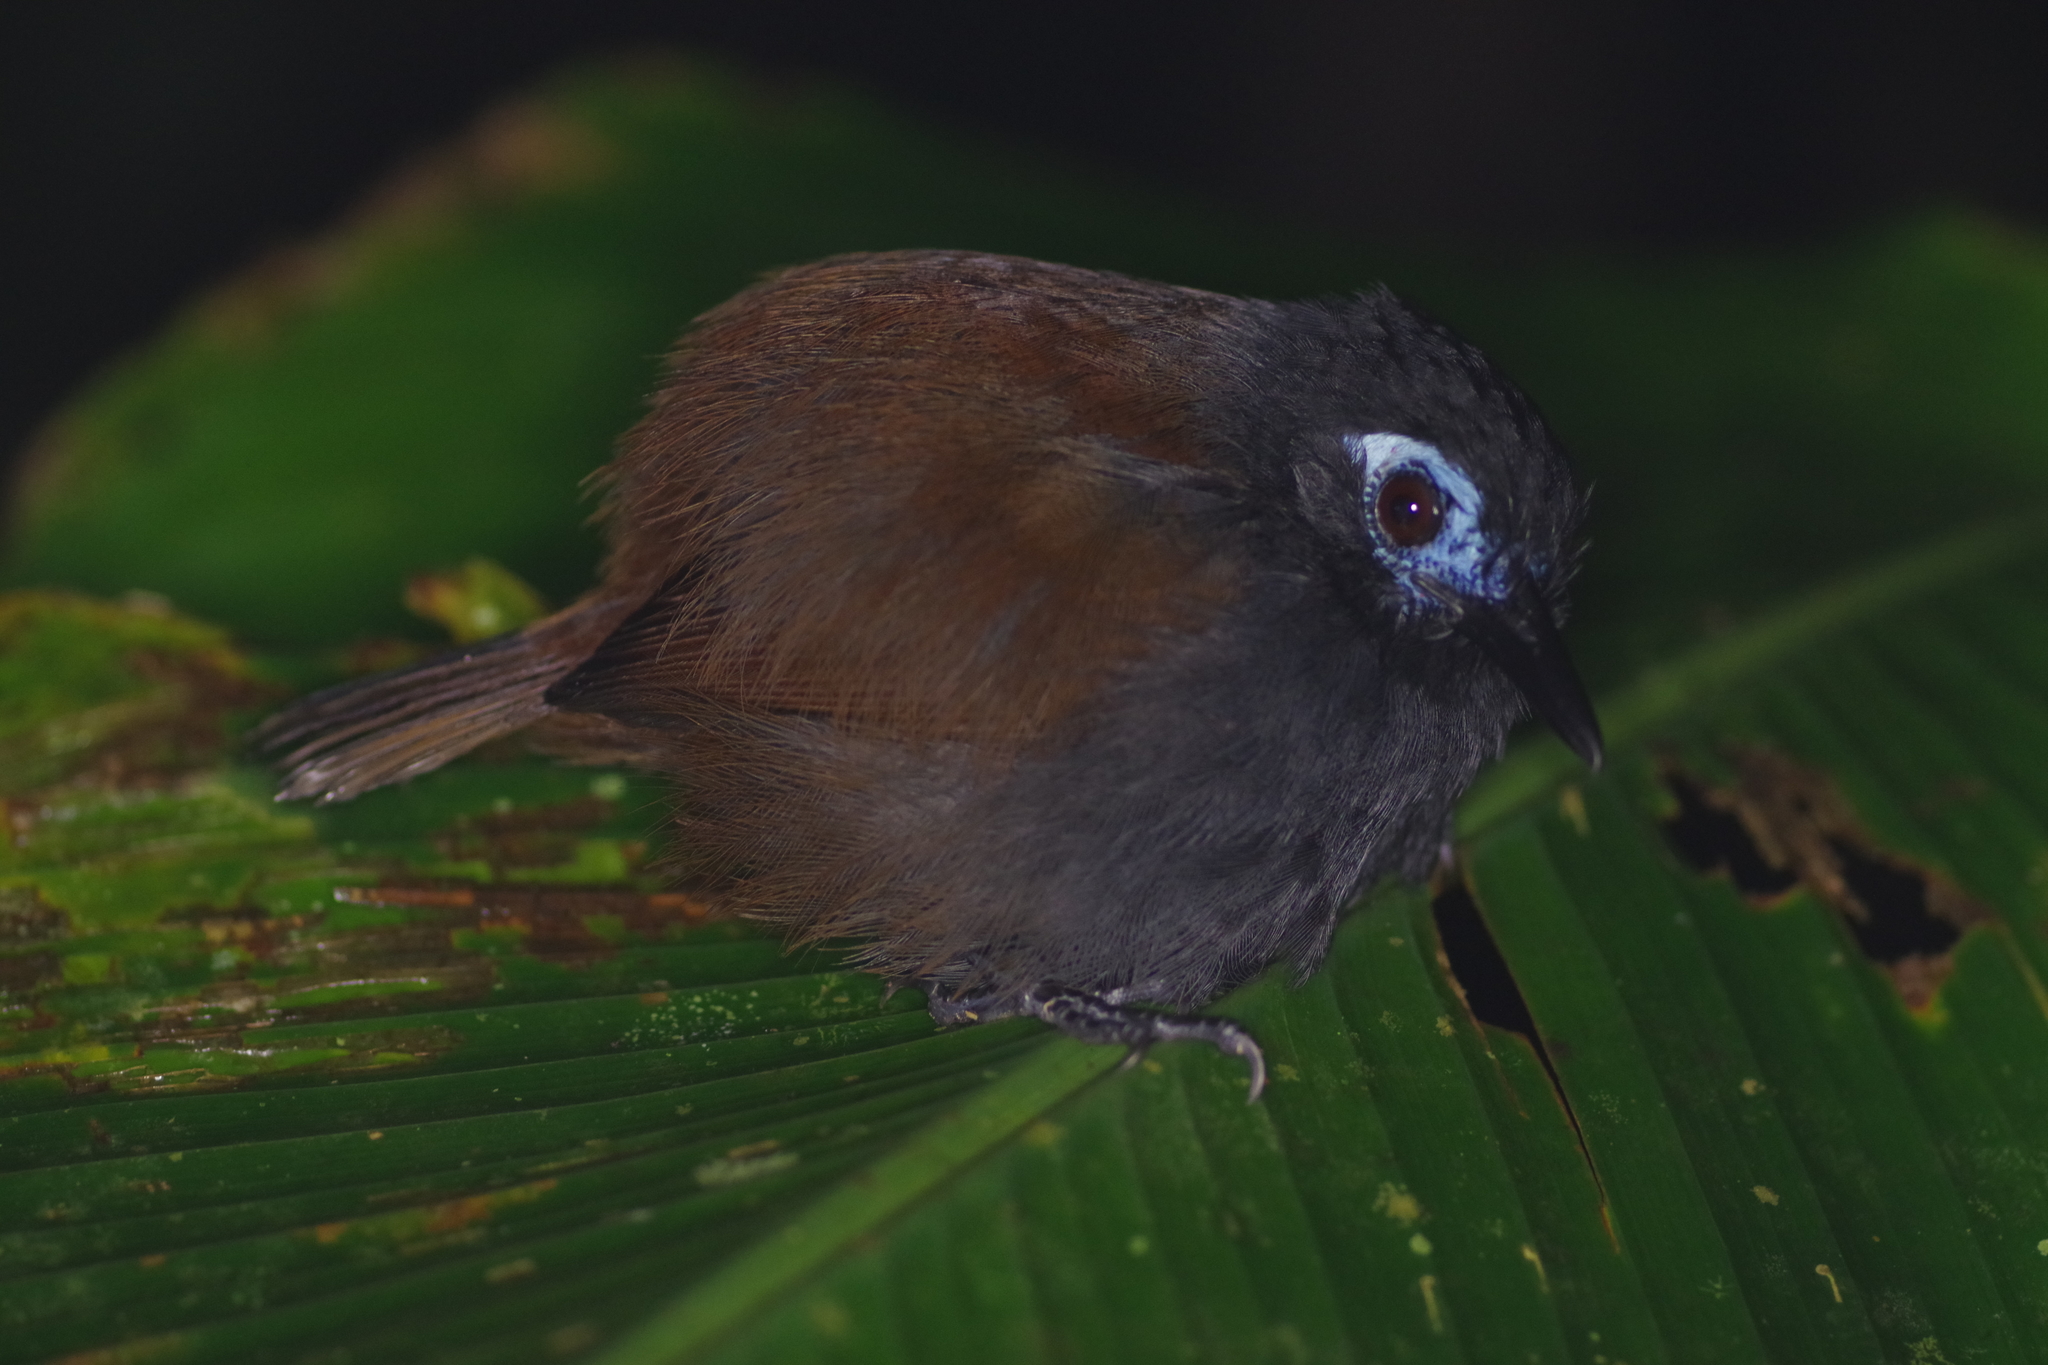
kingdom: Animalia
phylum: Chordata
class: Aves
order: Passeriformes
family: Thamnophilidae
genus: Myrmeciza
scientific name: Myrmeciza exsul
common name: Chestnut-backed antbird
